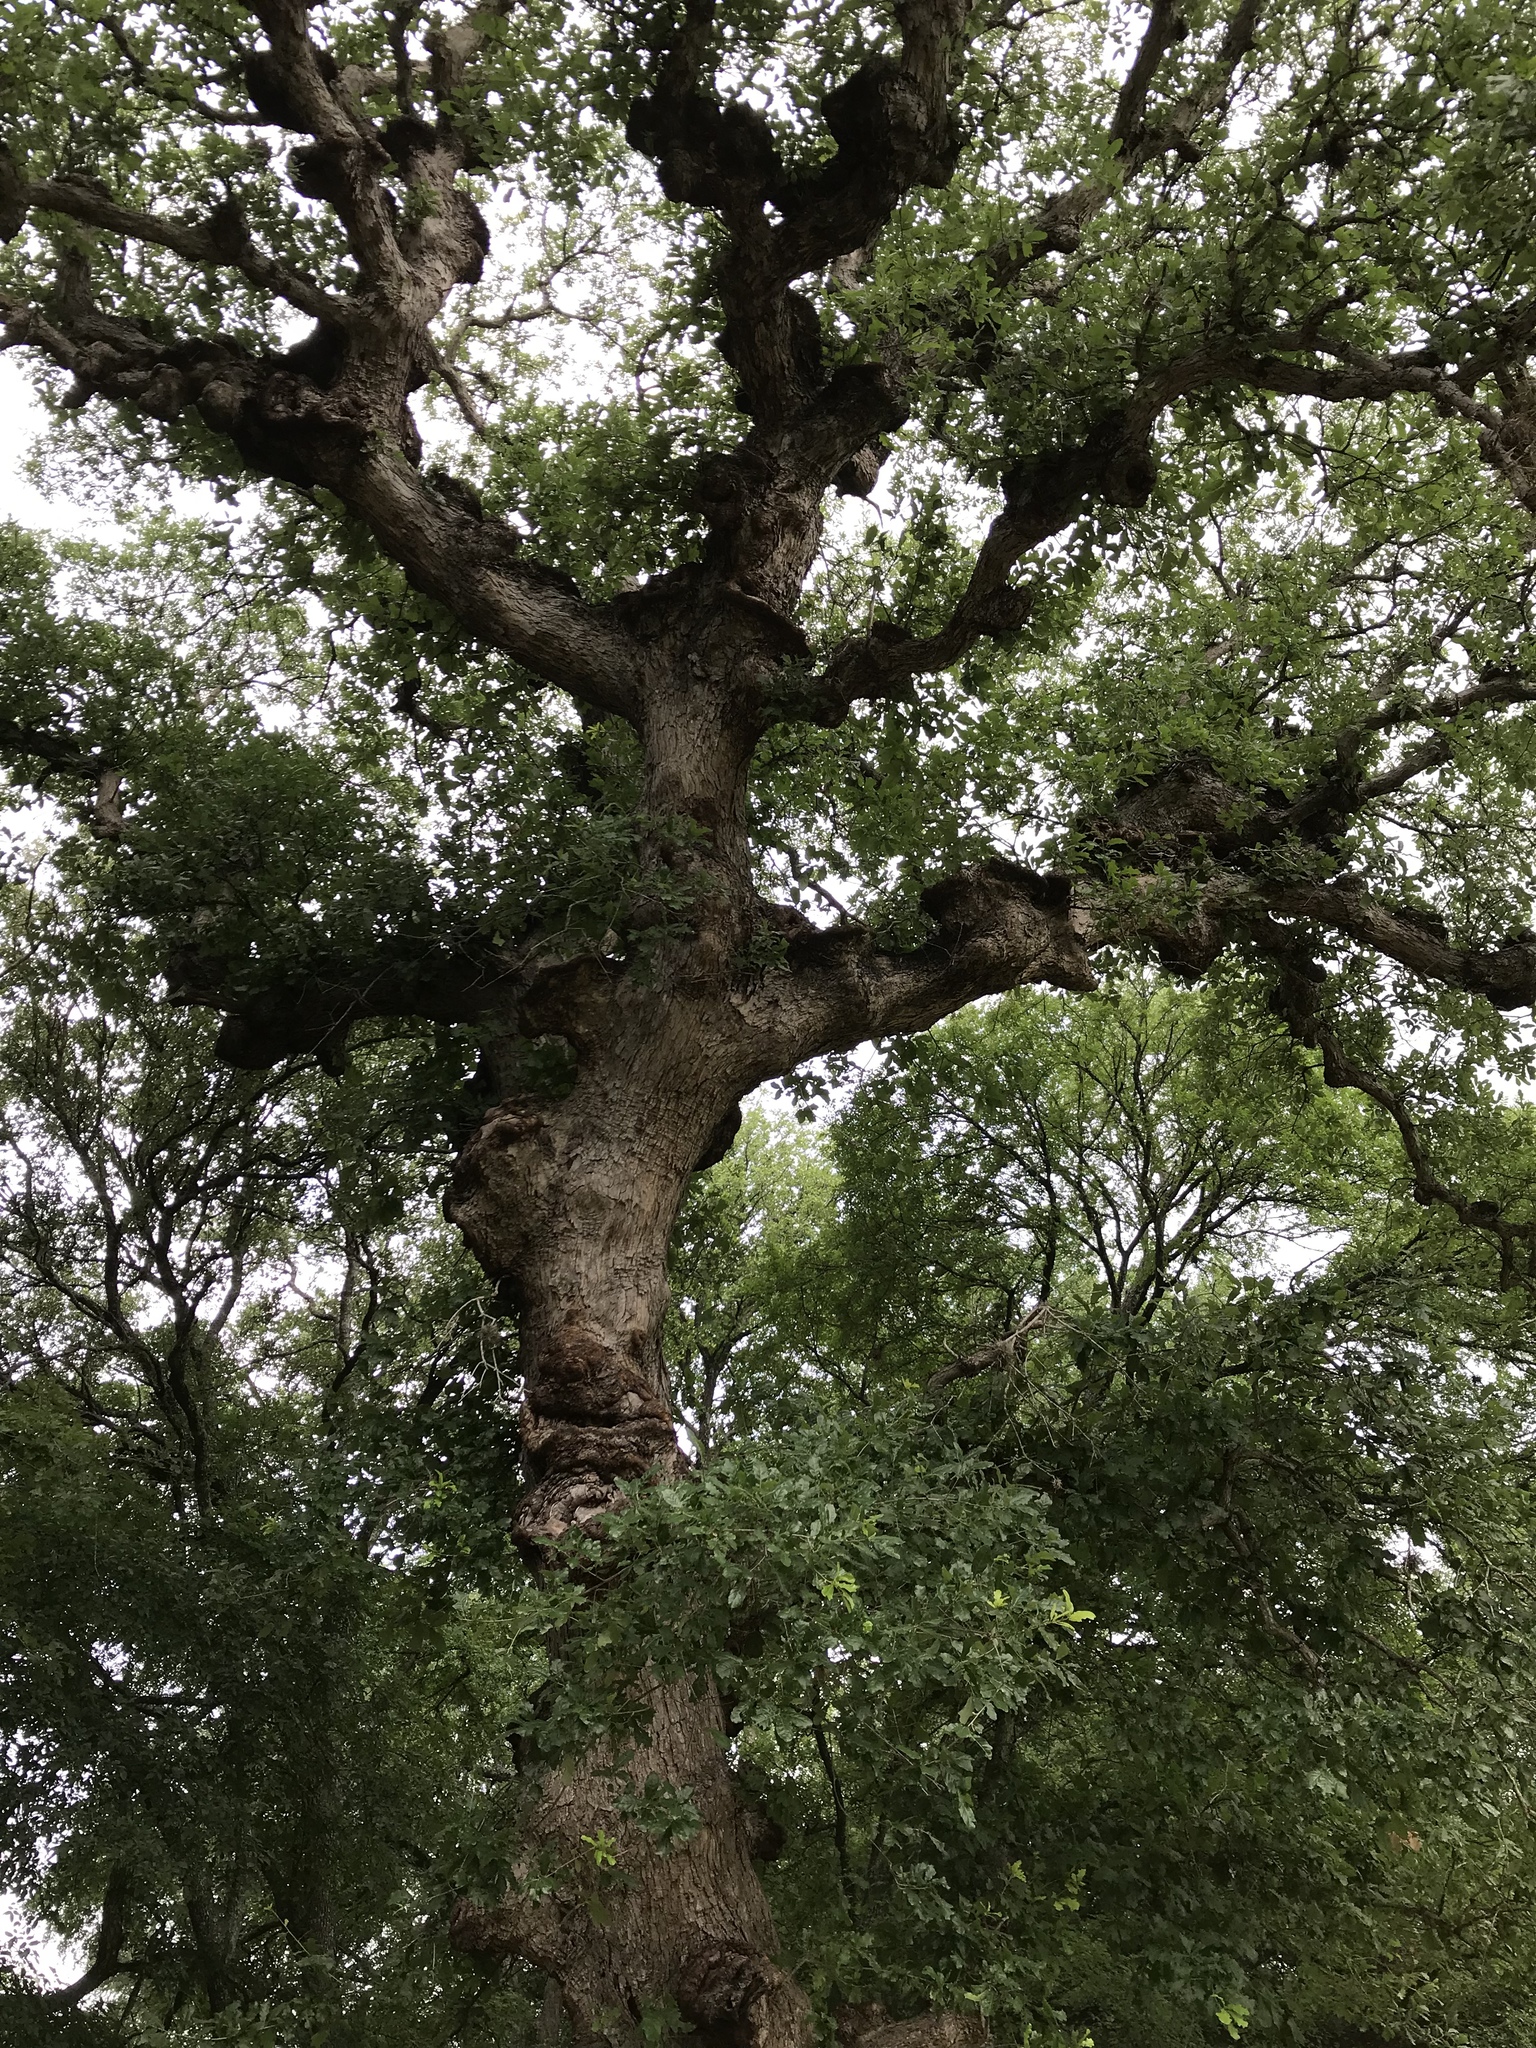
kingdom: Plantae
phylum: Tracheophyta
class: Magnoliopsida
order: Fagales
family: Fagaceae
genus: Quercus
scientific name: Quercus sinuata
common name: Durand oak
